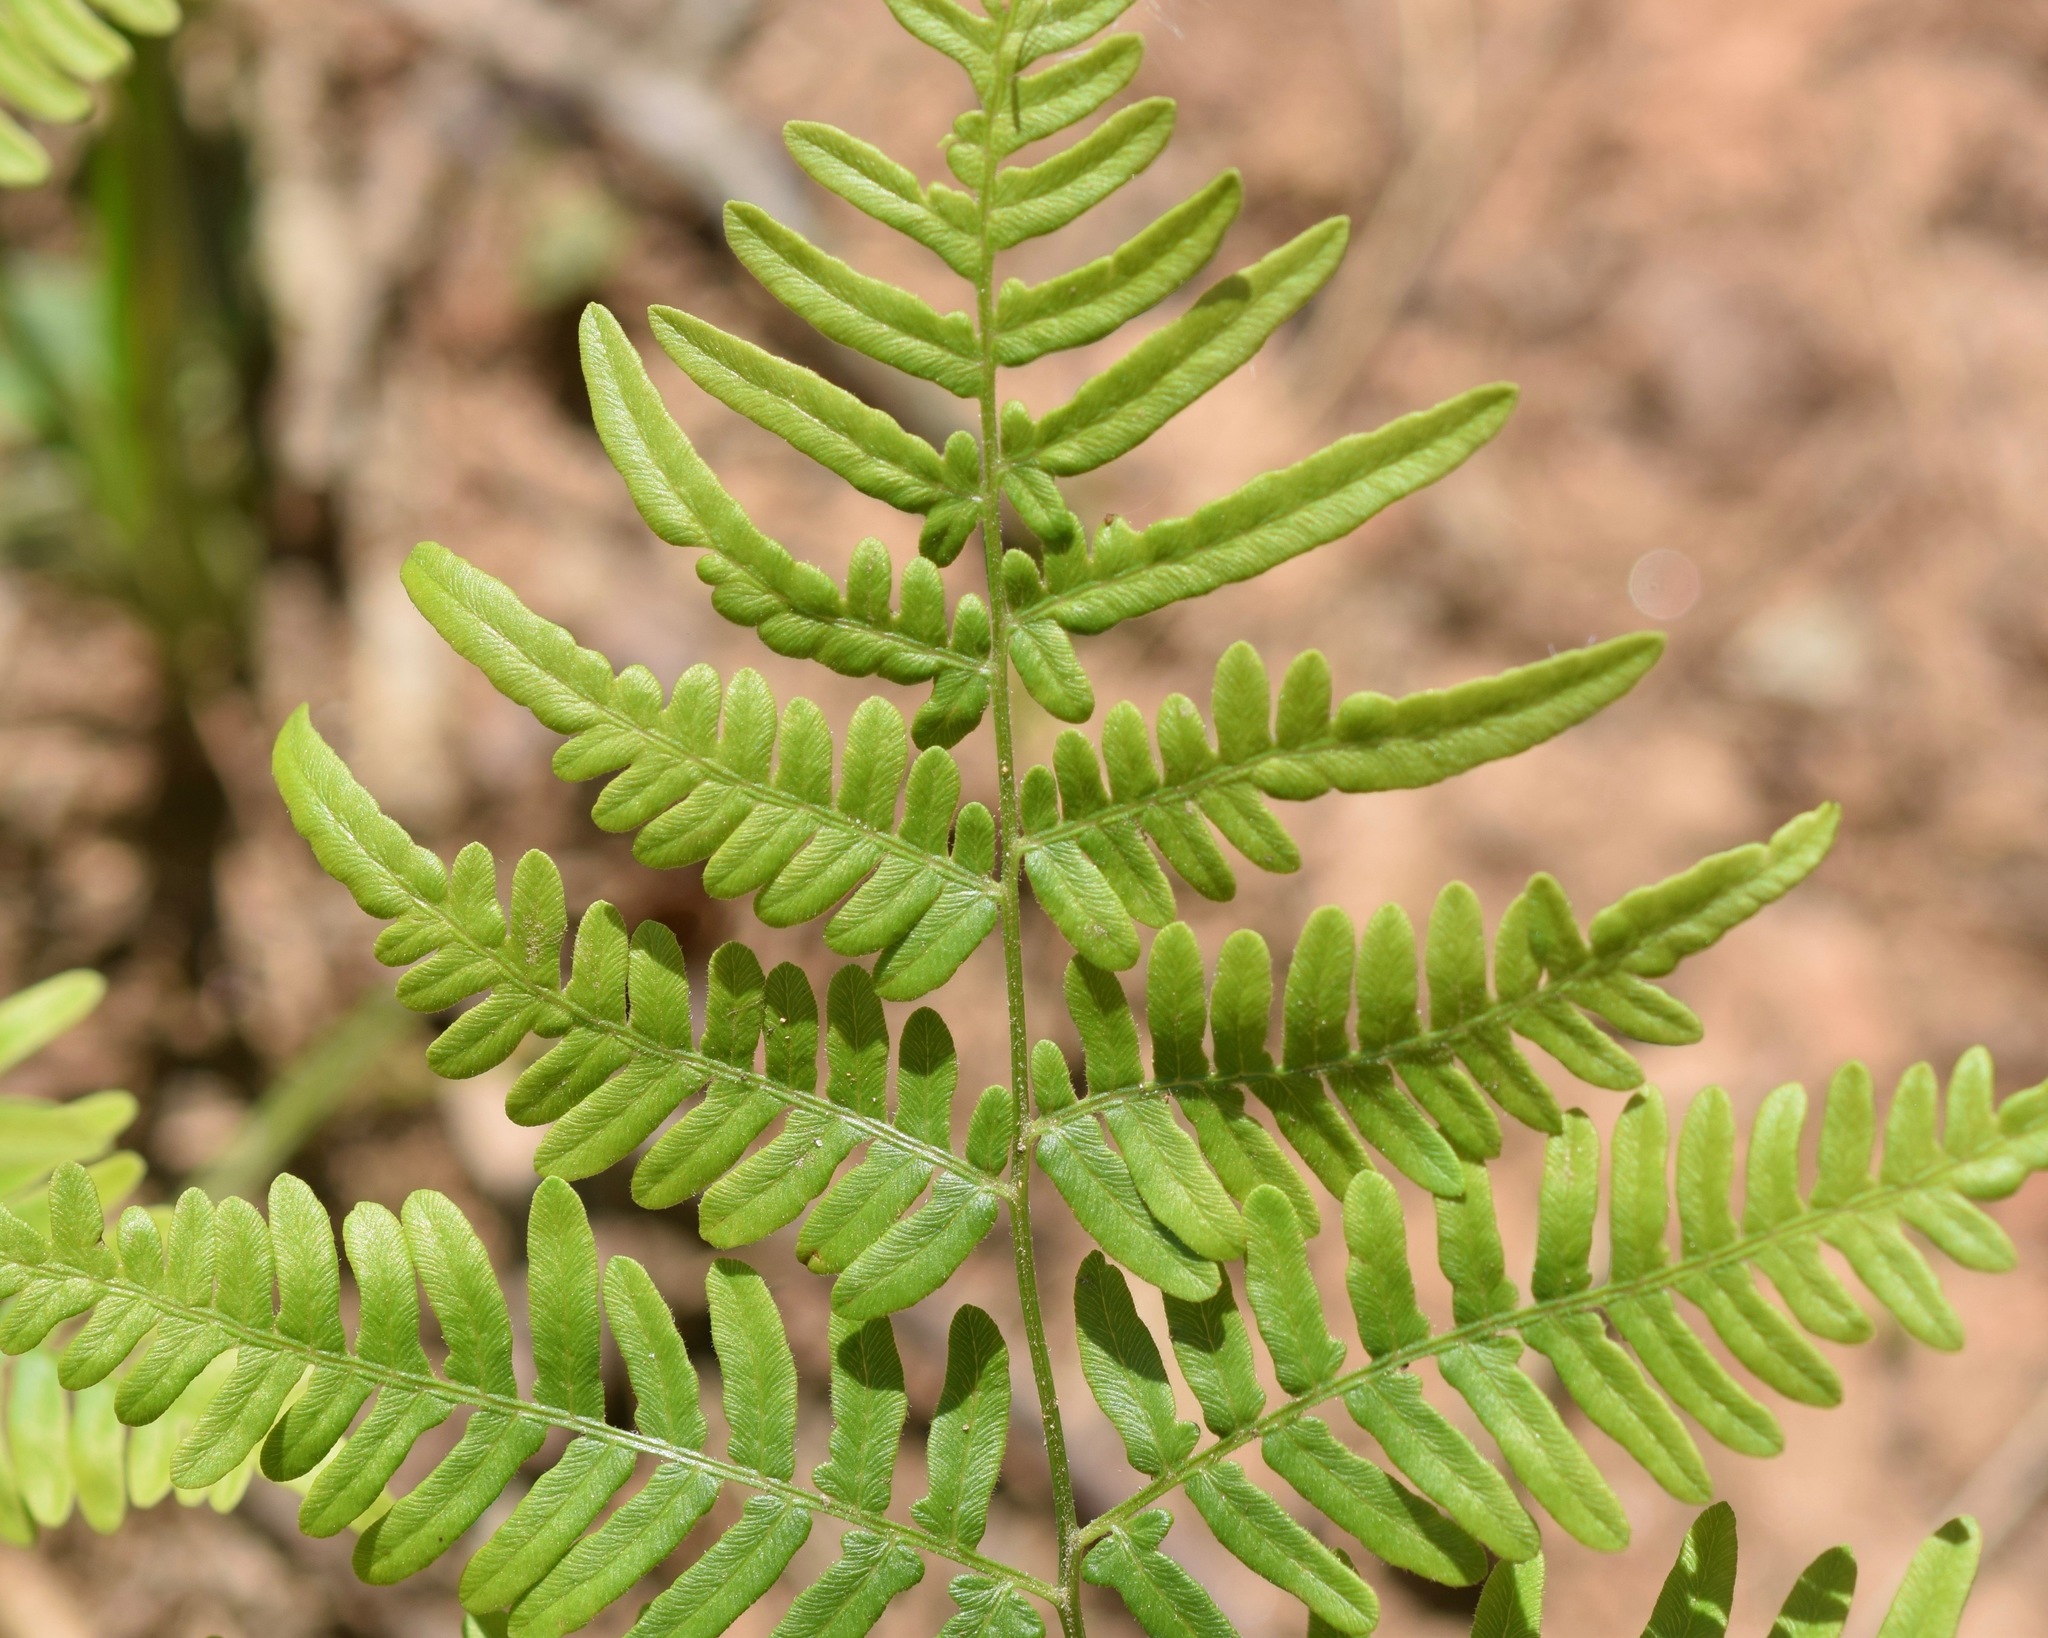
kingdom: Plantae
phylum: Tracheophyta
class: Polypodiopsida
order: Polypodiales
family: Dennstaedtiaceae
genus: Pteridium
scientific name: Pteridium aquilinum
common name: Bracken
